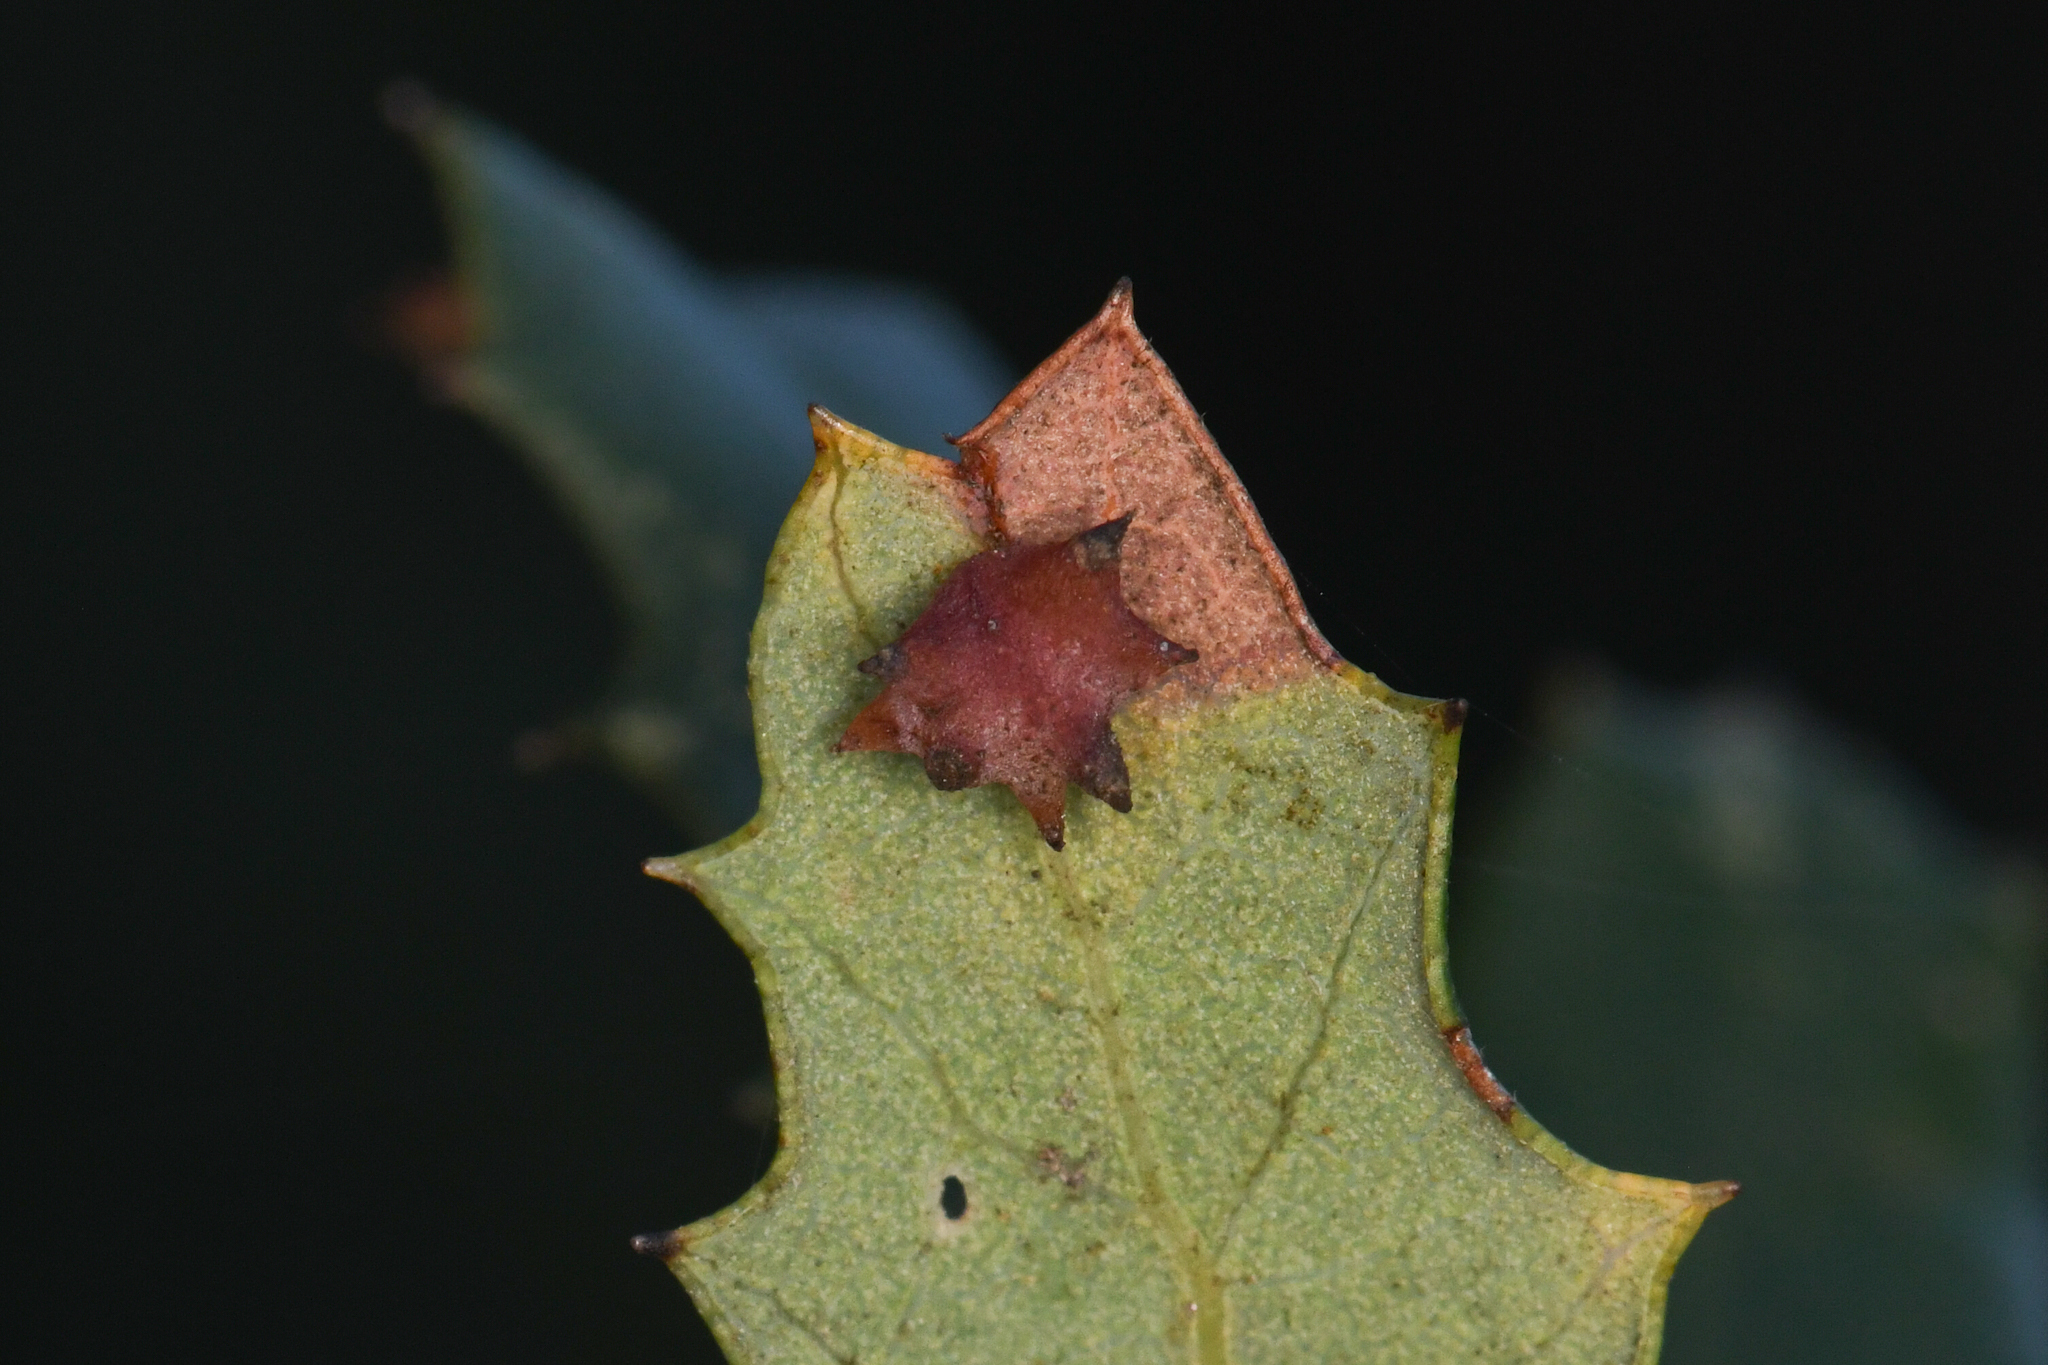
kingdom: Animalia
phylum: Arthropoda
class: Insecta
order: Hymenoptera
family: Cynipidae
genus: Cynips
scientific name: Cynips douglasi
